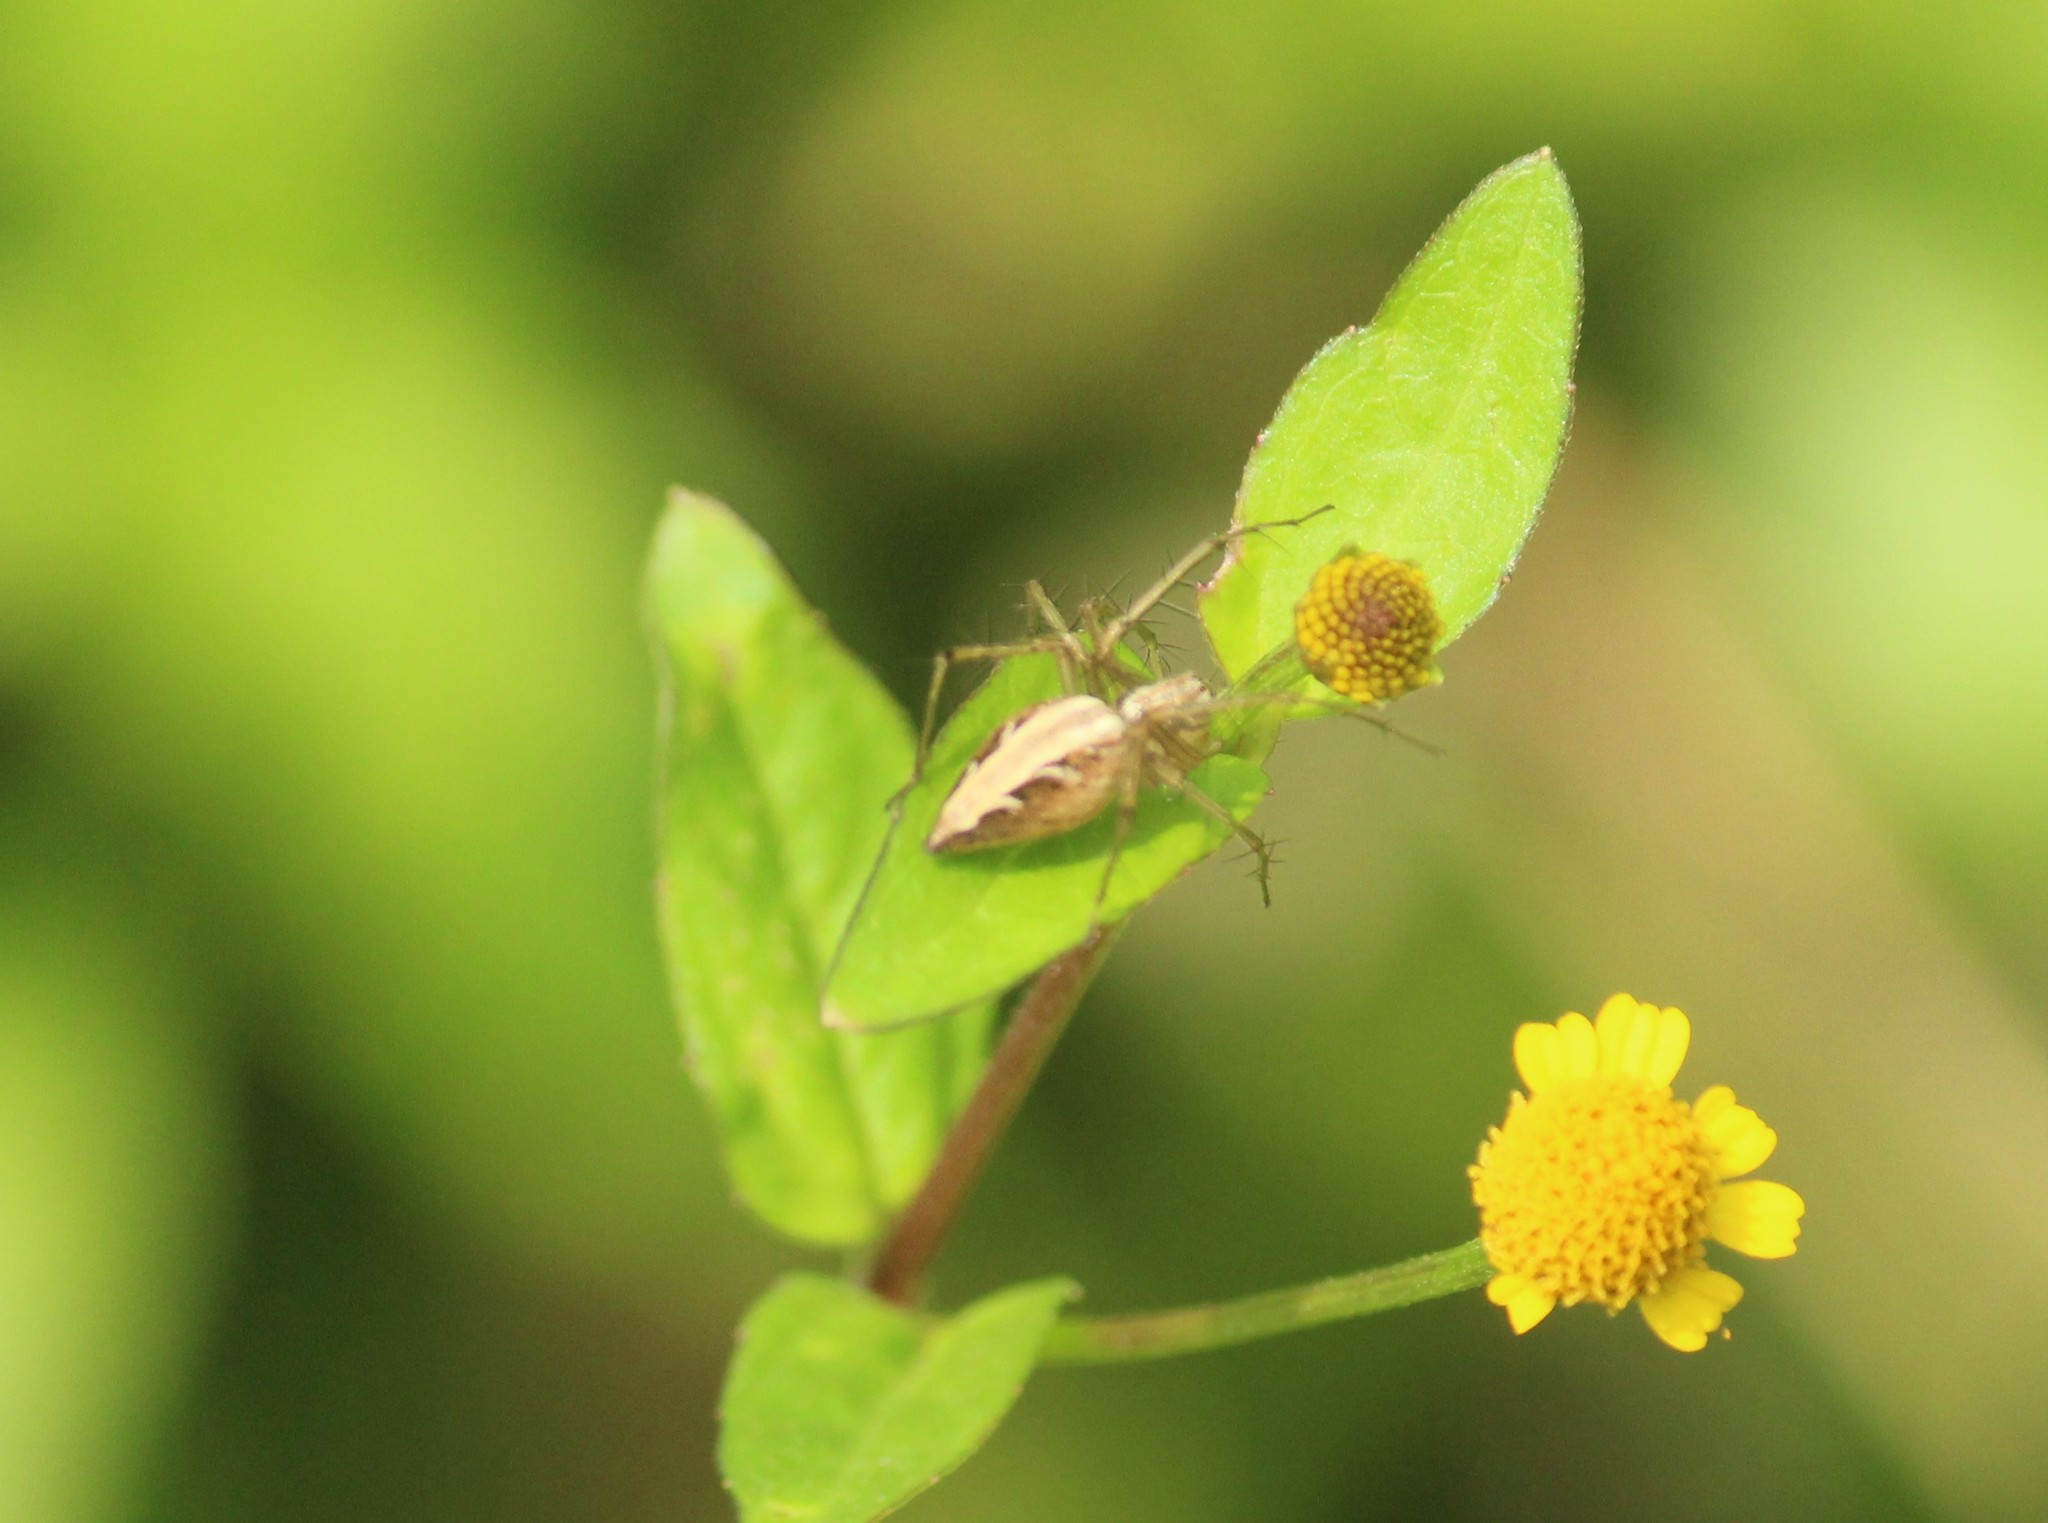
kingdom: Animalia
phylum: Arthropoda
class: Arachnida
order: Araneae
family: Oxyopidae
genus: Oxyopes
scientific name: Oxyopes
